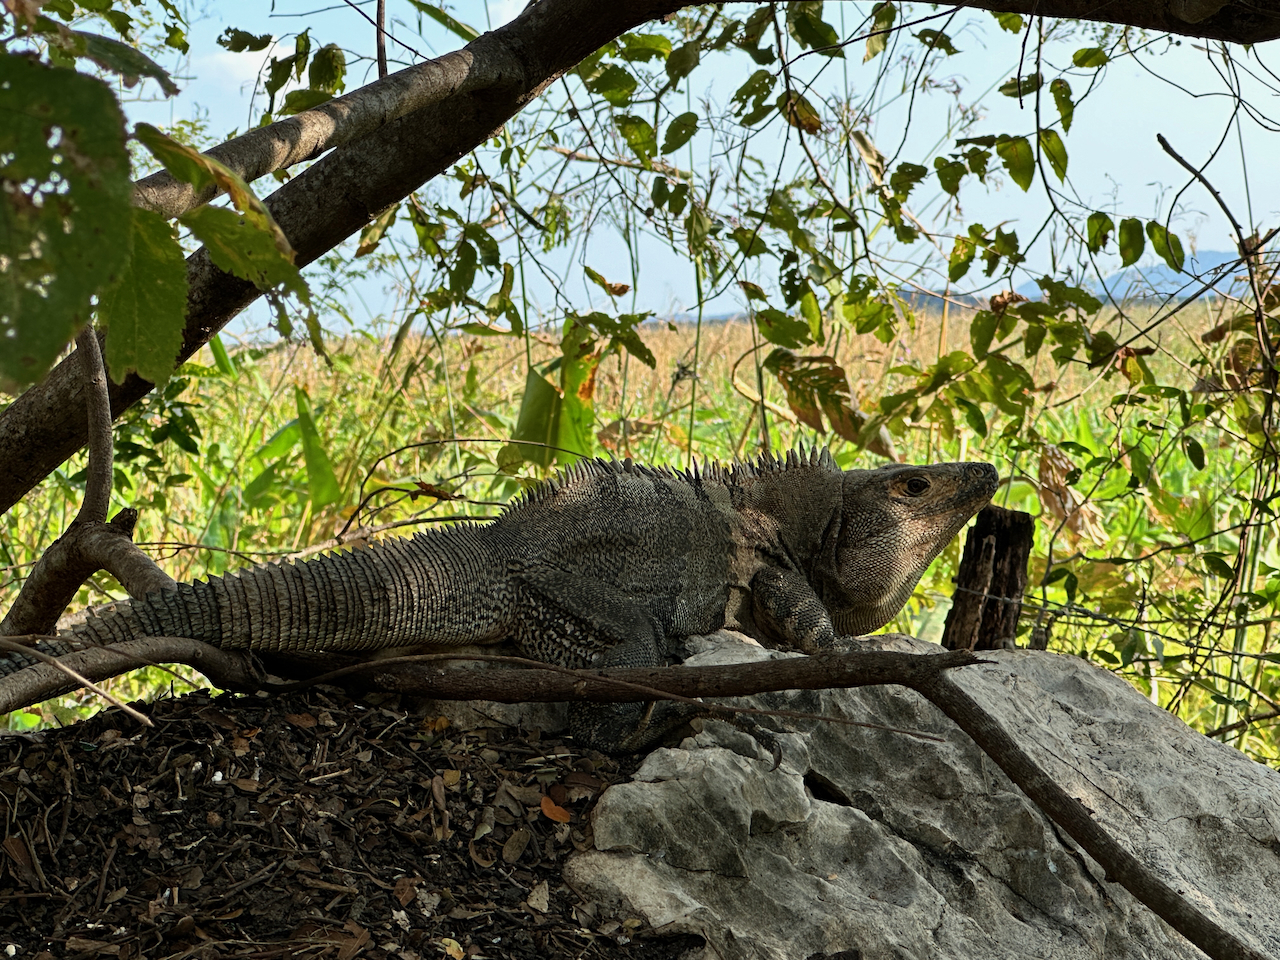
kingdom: Animalia
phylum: Chordata
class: Squamata
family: Iguanidae
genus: Ctenosaura
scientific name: Ctenosaura similis
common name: Black spiny-tailed iguana
